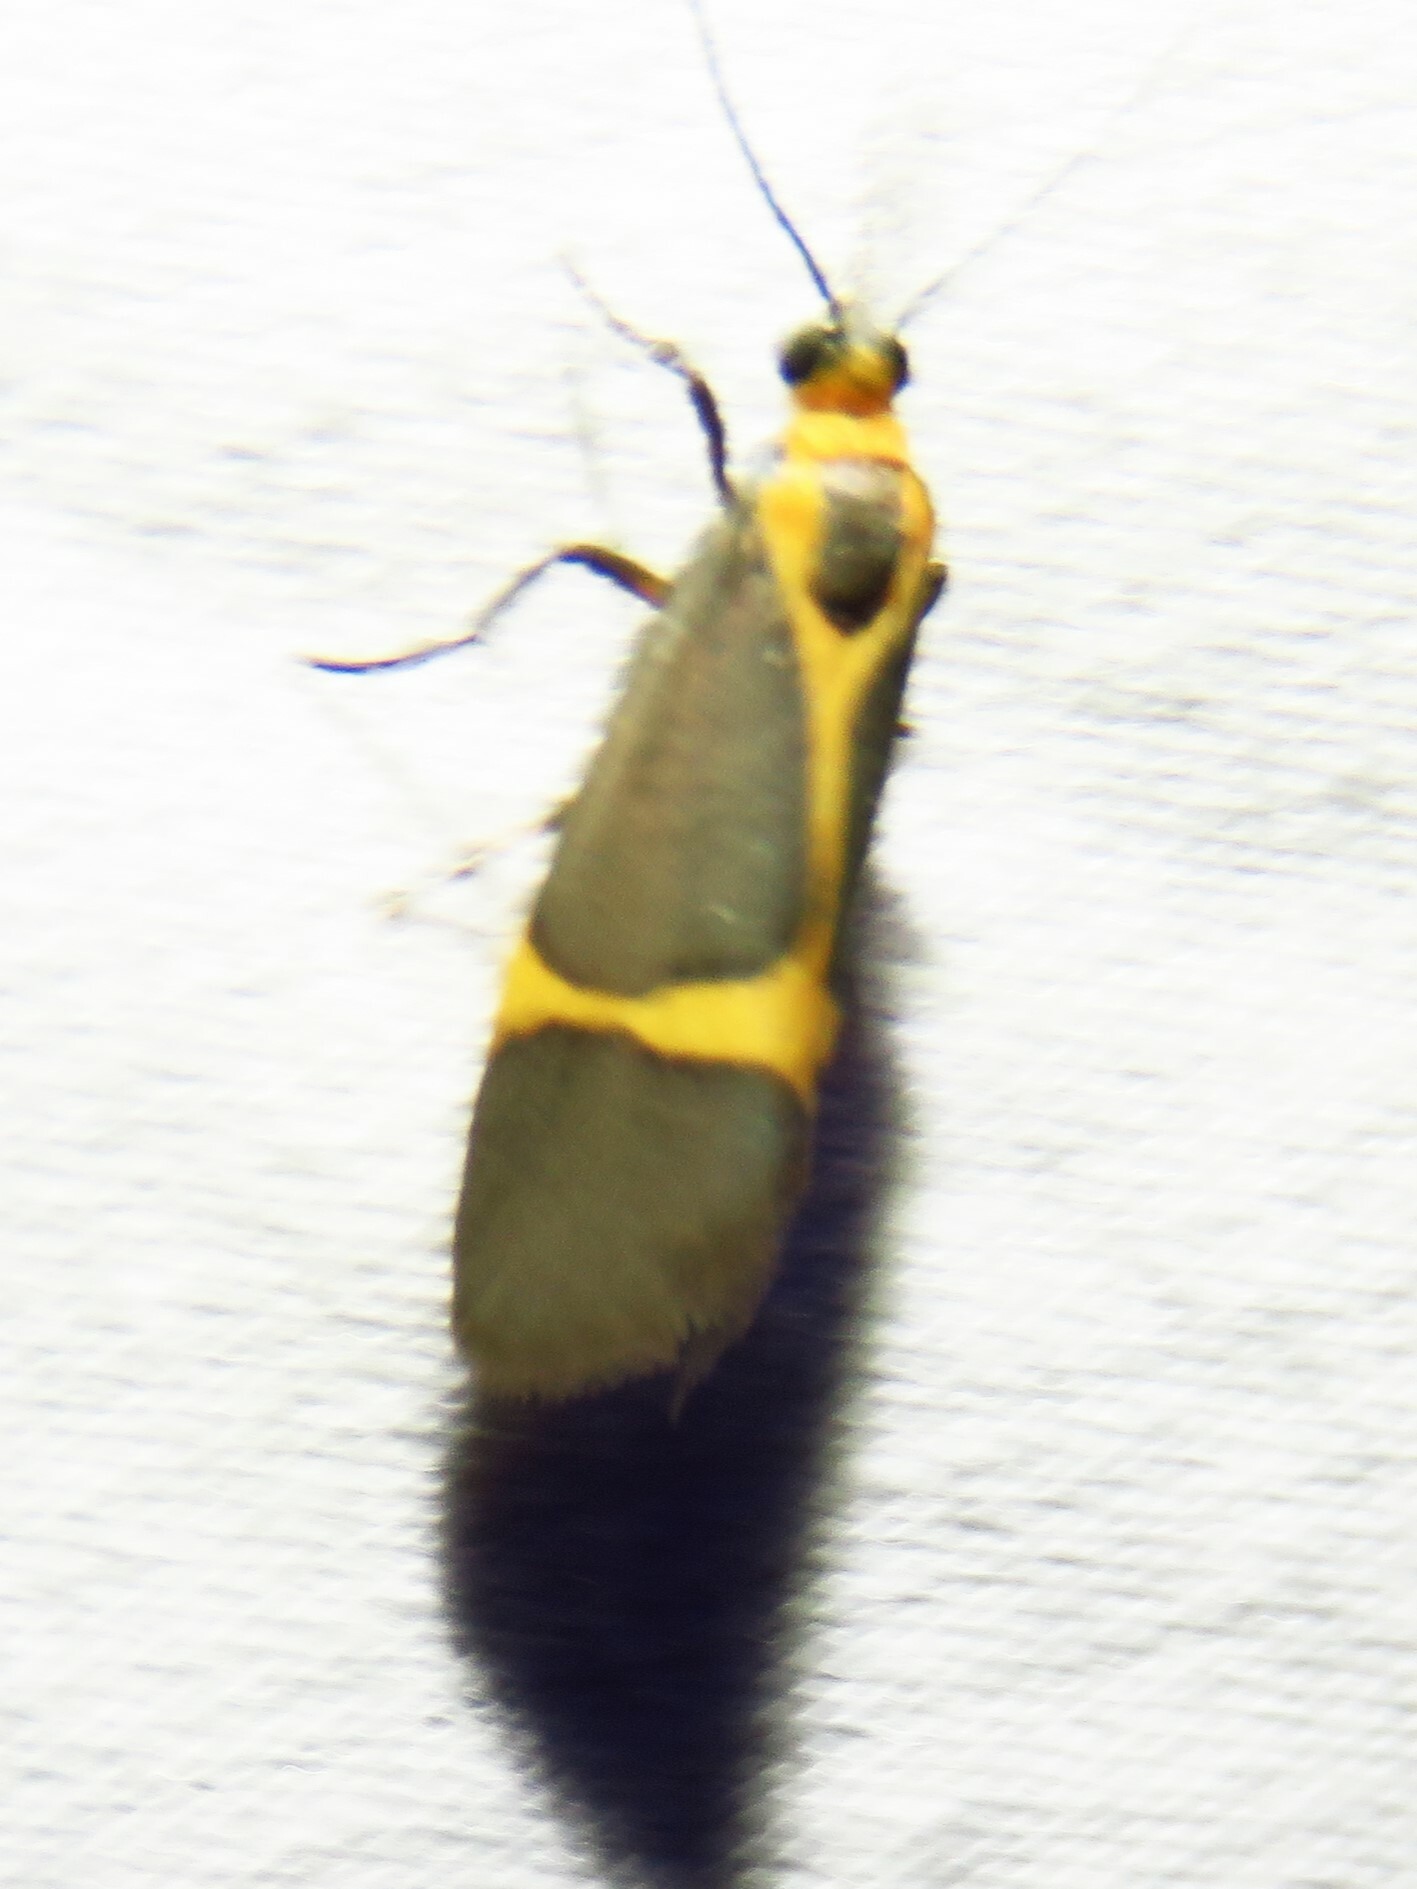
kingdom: Animalia
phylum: Arthropoda
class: Insecta
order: Lepidoptera
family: Erebidae
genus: Cisthene
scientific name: Cisthene tenuifascia
